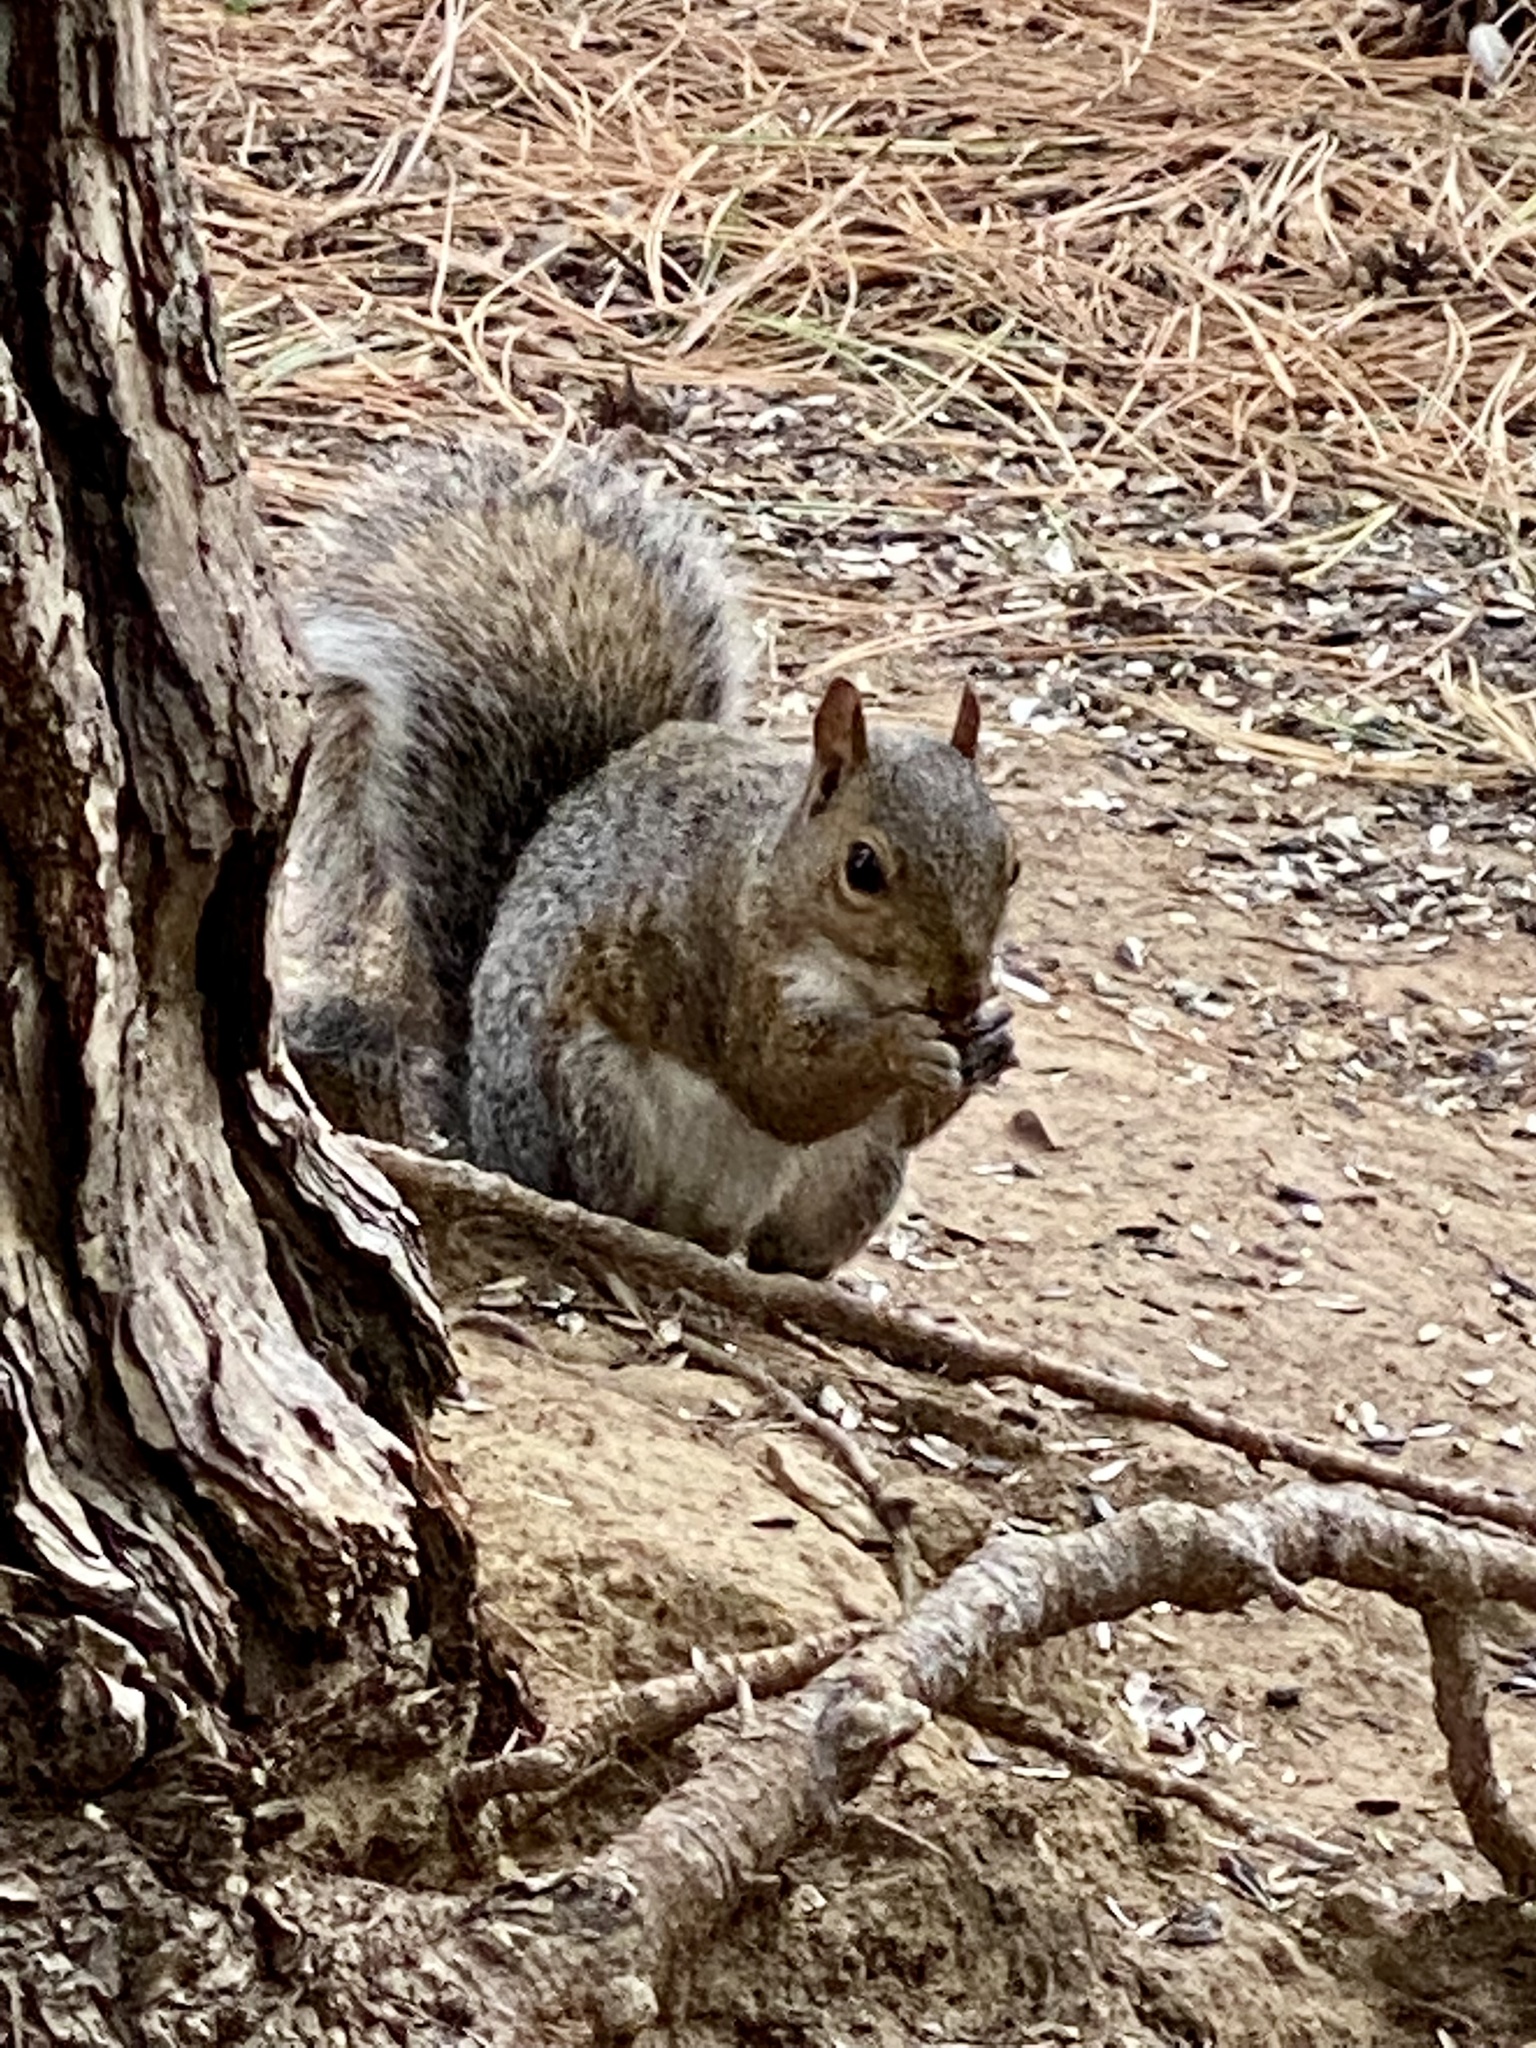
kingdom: Animalia
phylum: Chordata
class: Mammalia
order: Rodentia
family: Sciuridae
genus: Sciurus
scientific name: Sciurus carolinensis
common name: Eastern gray squirrel
